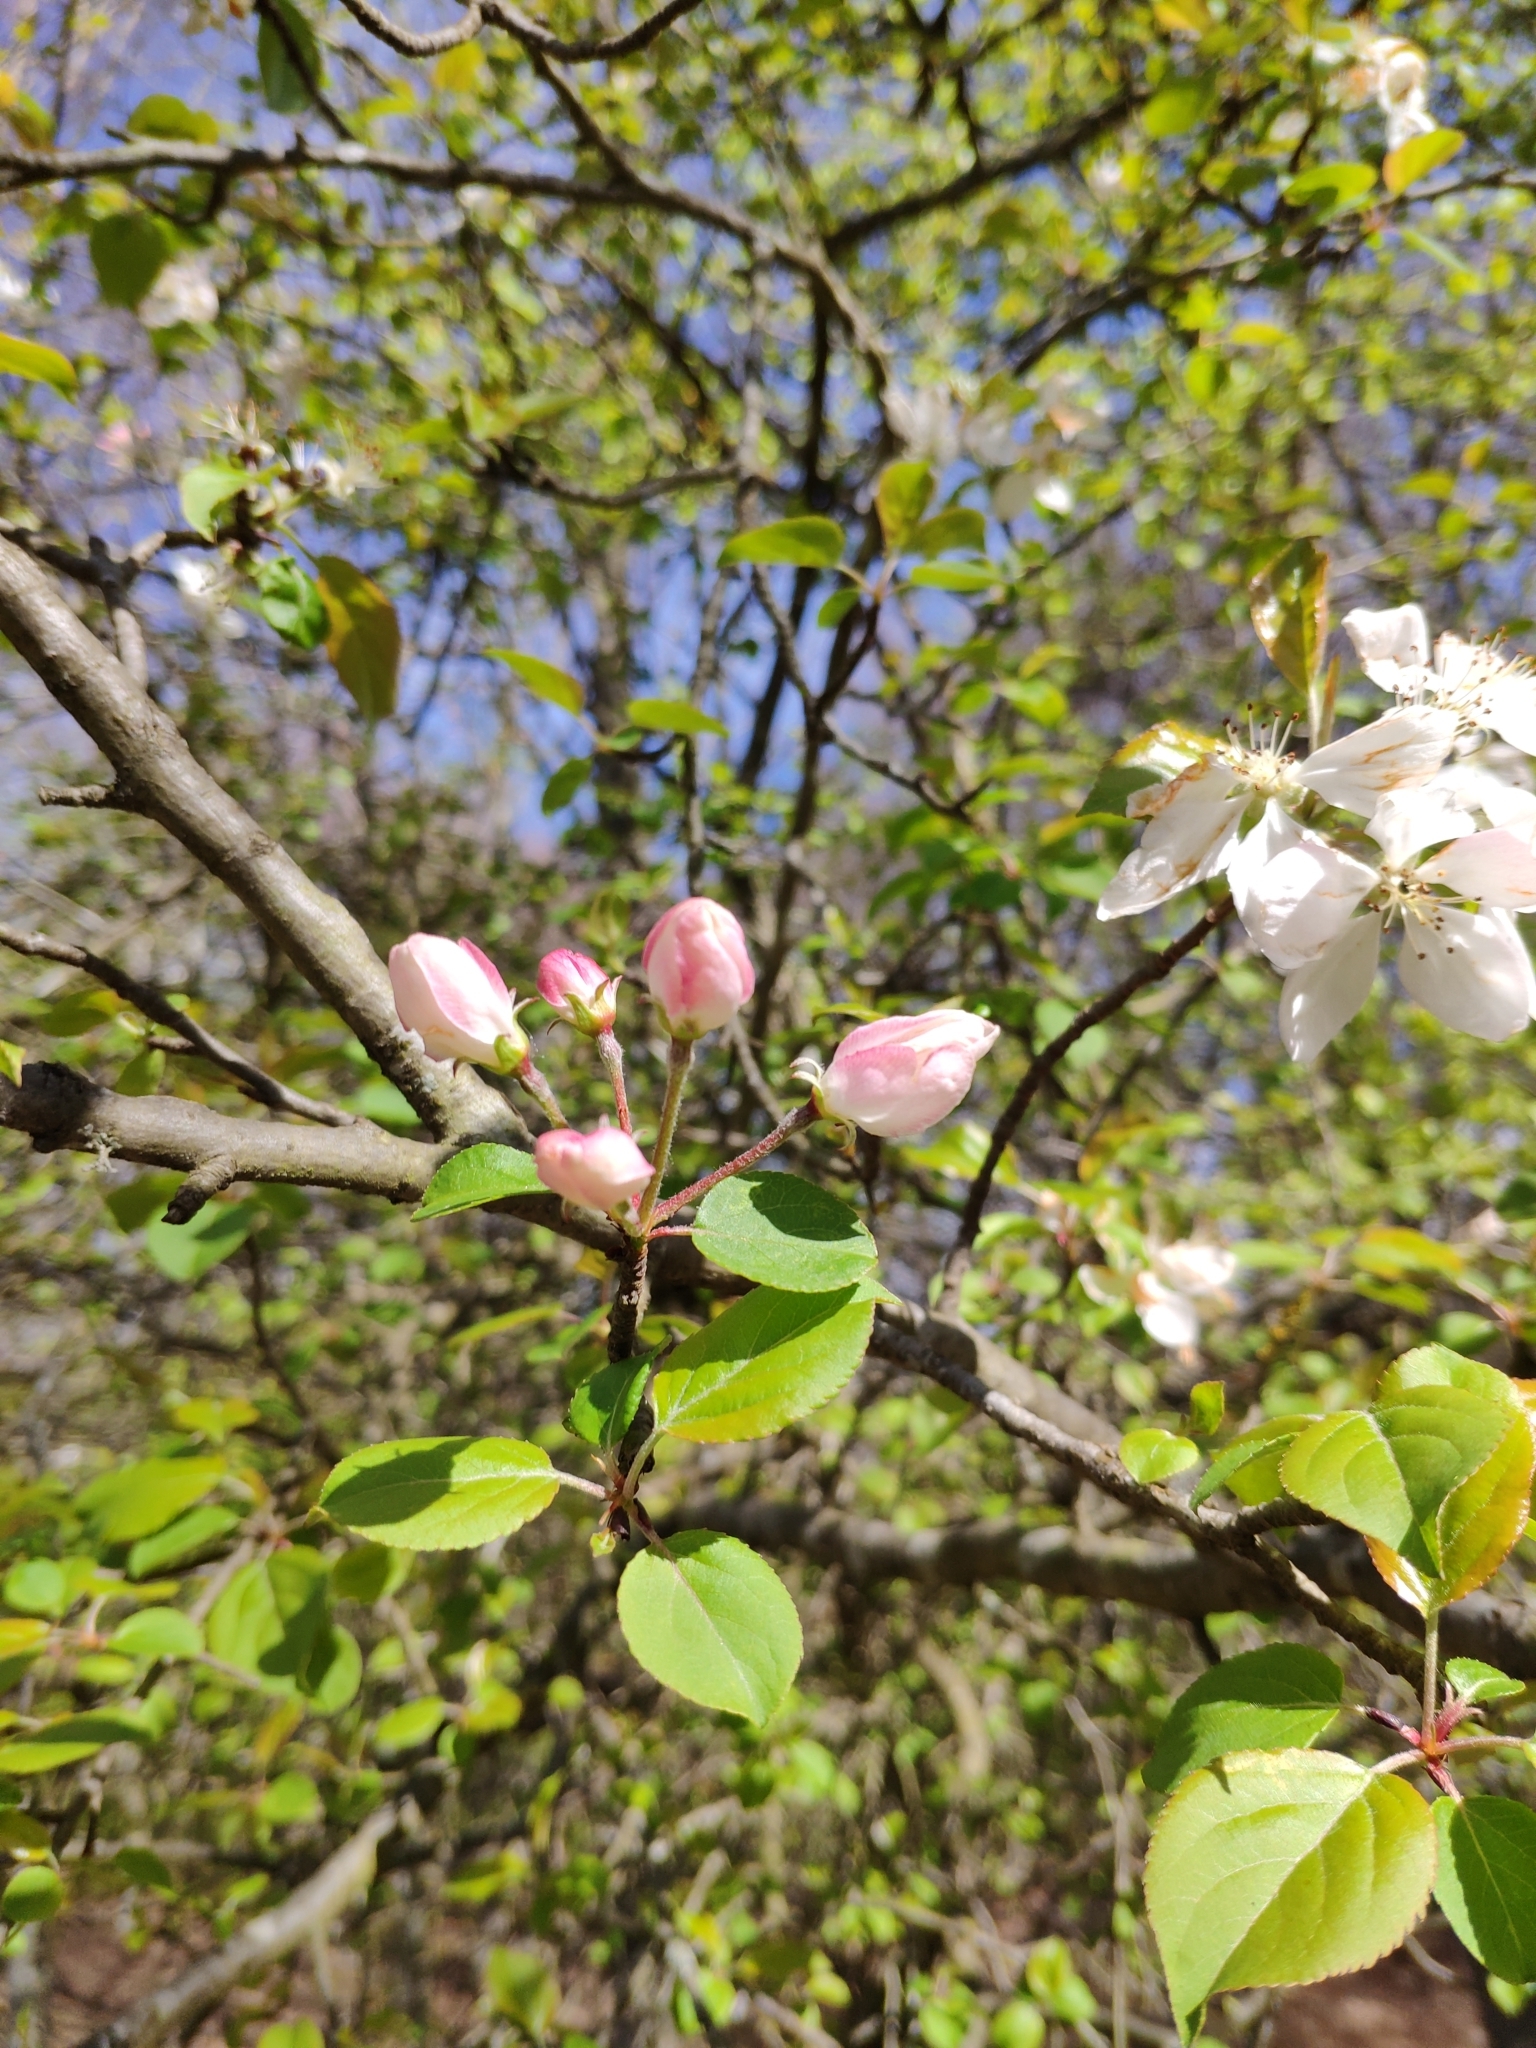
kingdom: Plantae
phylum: Tracheophyta
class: Magnoliopsida
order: Rosales
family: Rosaceae
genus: Pyrus
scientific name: Pyrus cordata
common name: Plymouth pear
